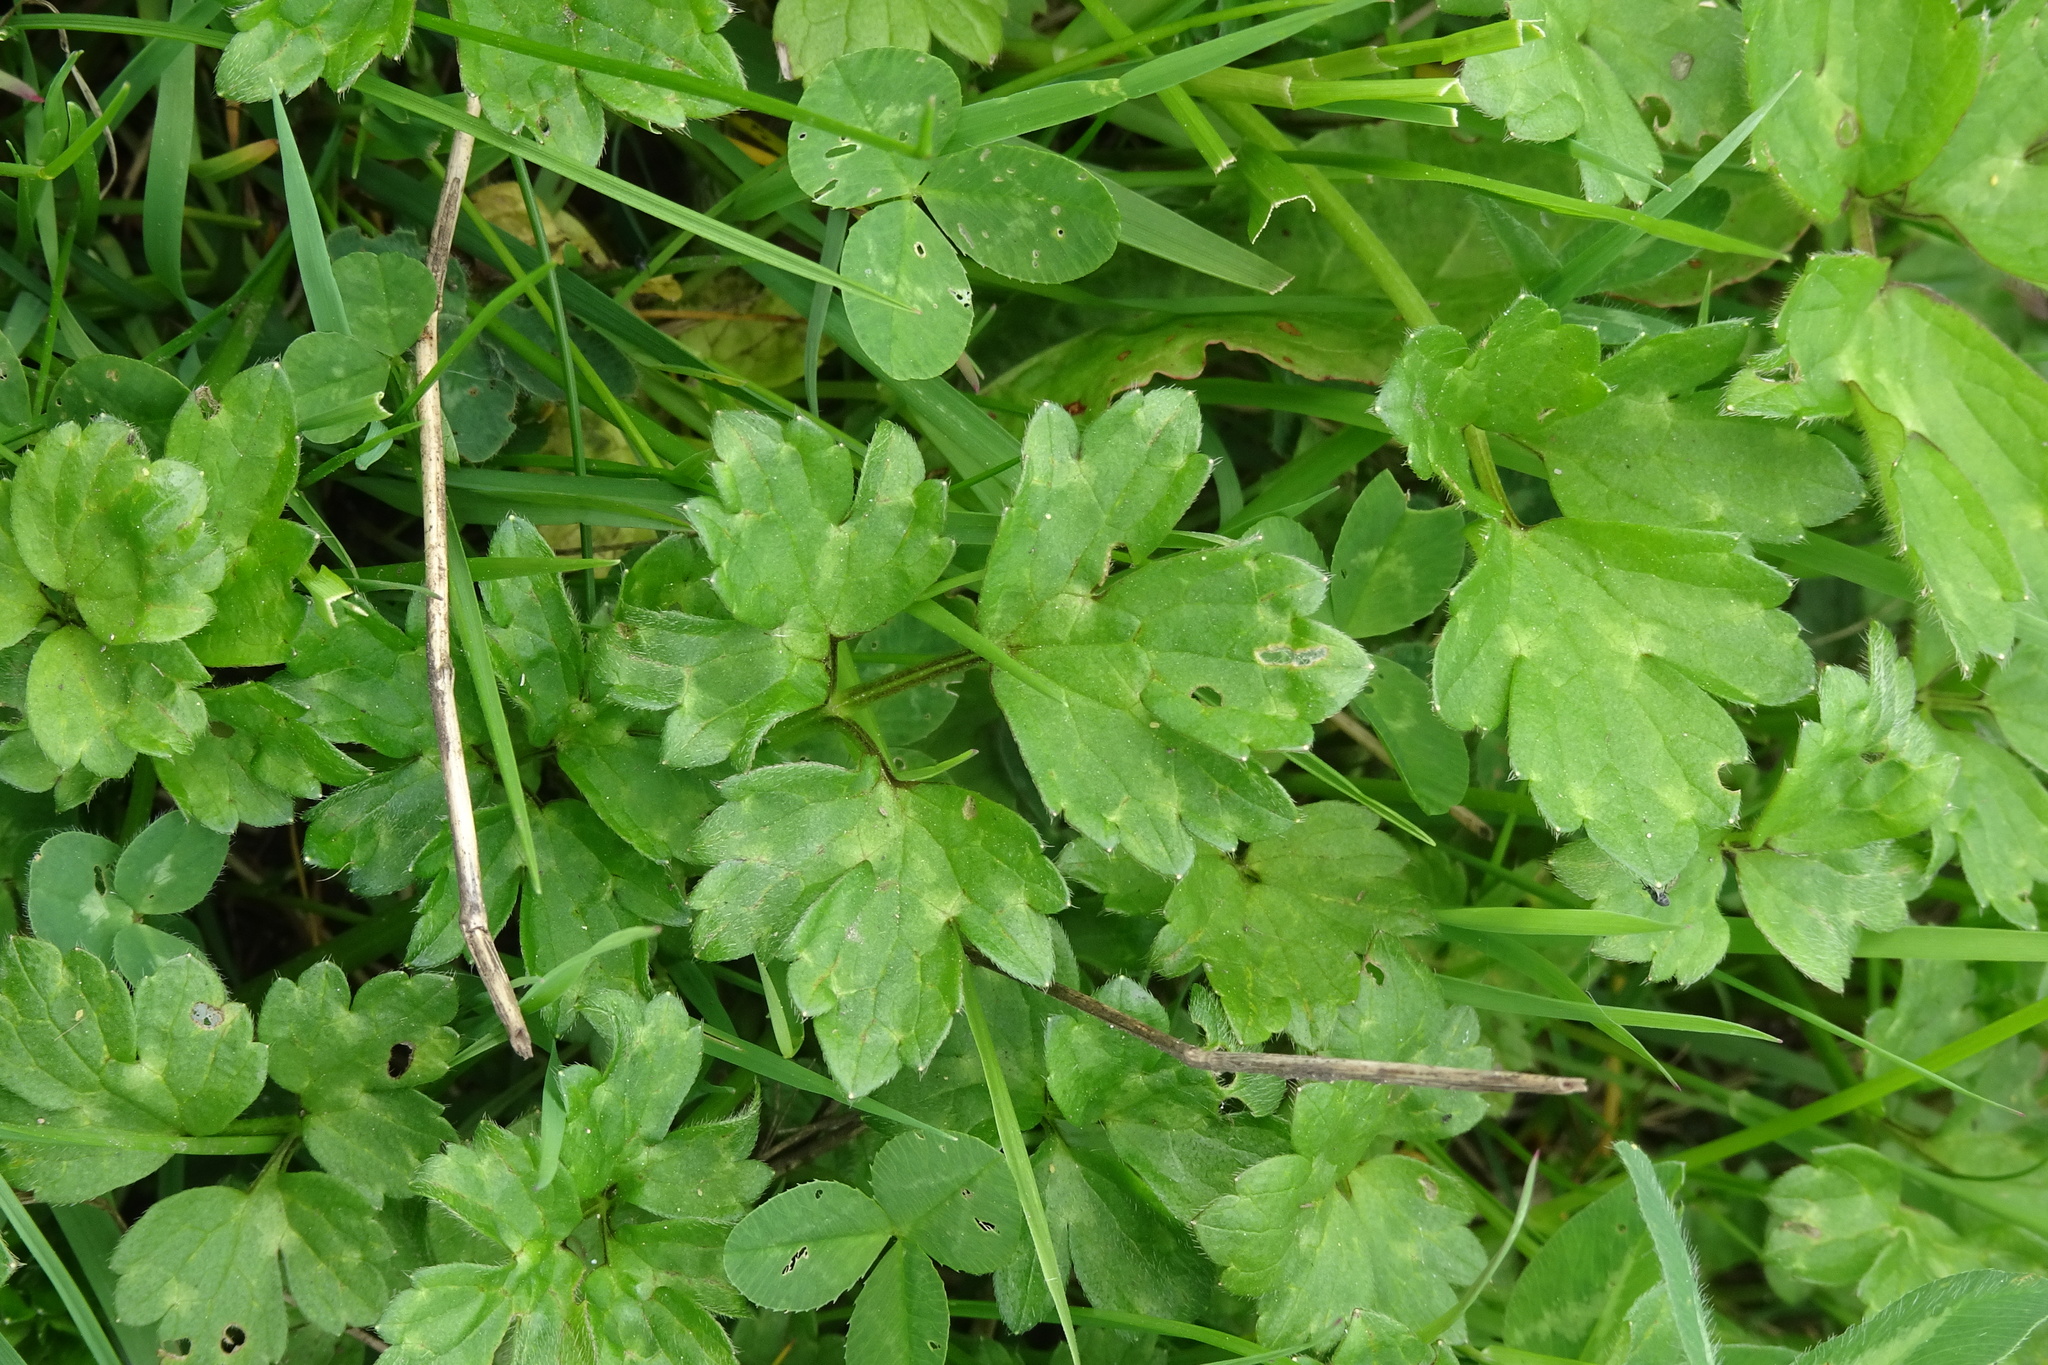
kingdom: Plantae
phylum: Tracheophyta
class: Magnoliopsida
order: Ranunculales
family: Ranunculaceae
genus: Ranunculus
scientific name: Ranunculus repens
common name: Creeping buttercup
